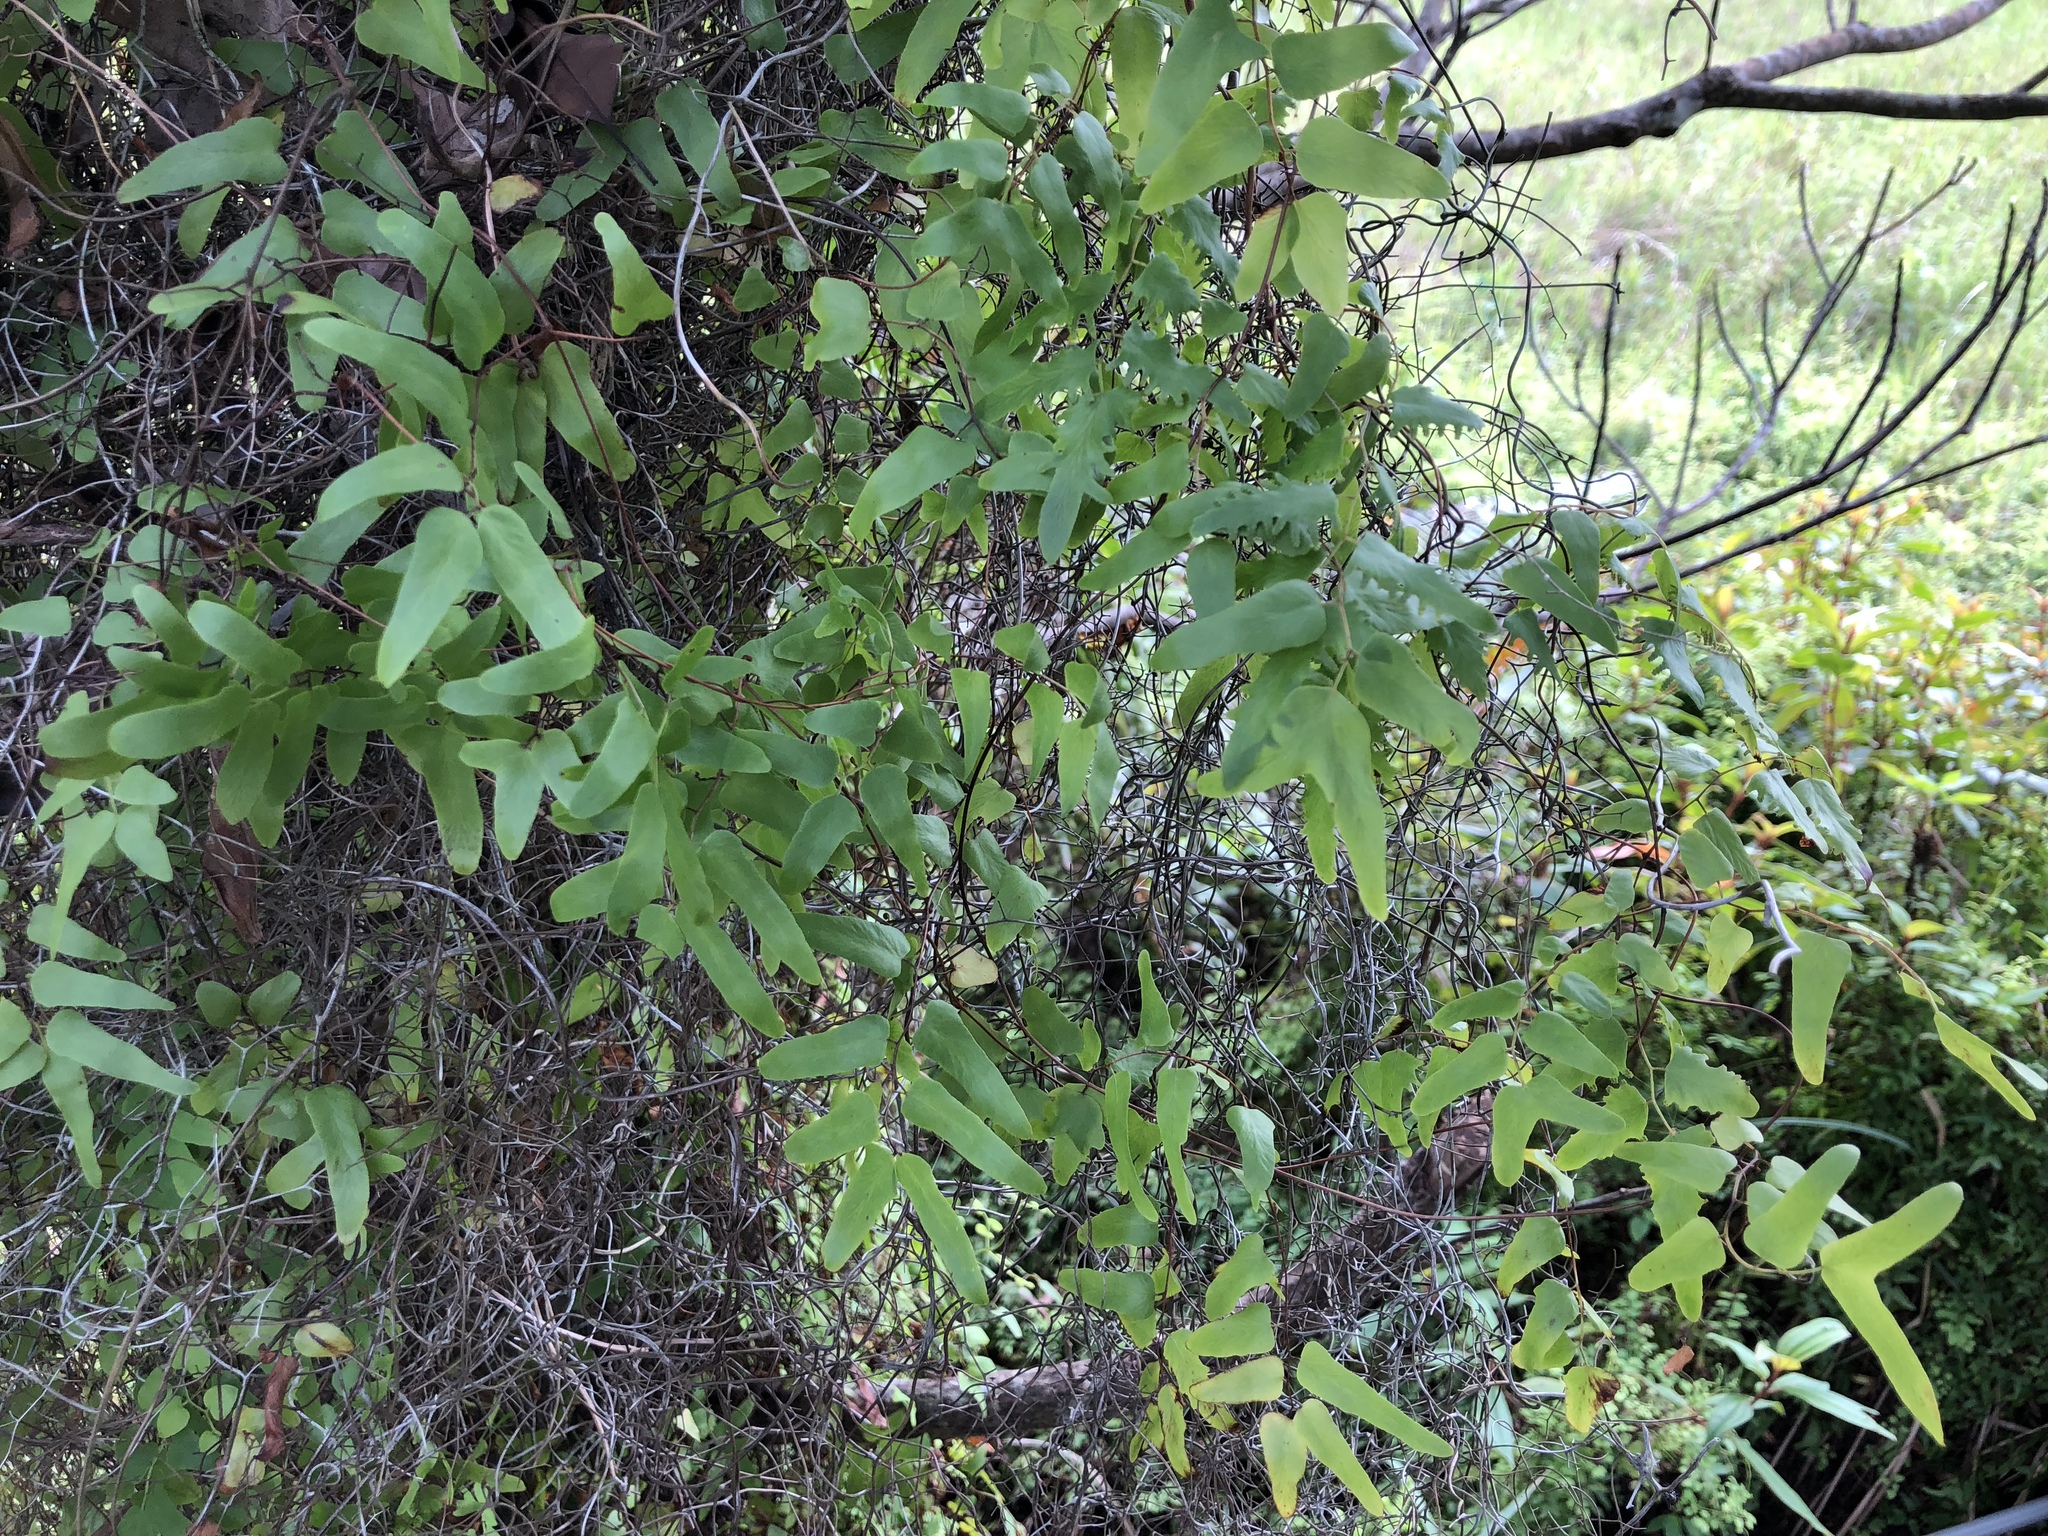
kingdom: Plantae
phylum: Tracheophyta
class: Polypodiopsida
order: Schizaeales
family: Lygodiaceae
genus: Lygodium
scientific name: Lygodium microphyllum
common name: Small-leaf climbing fern
